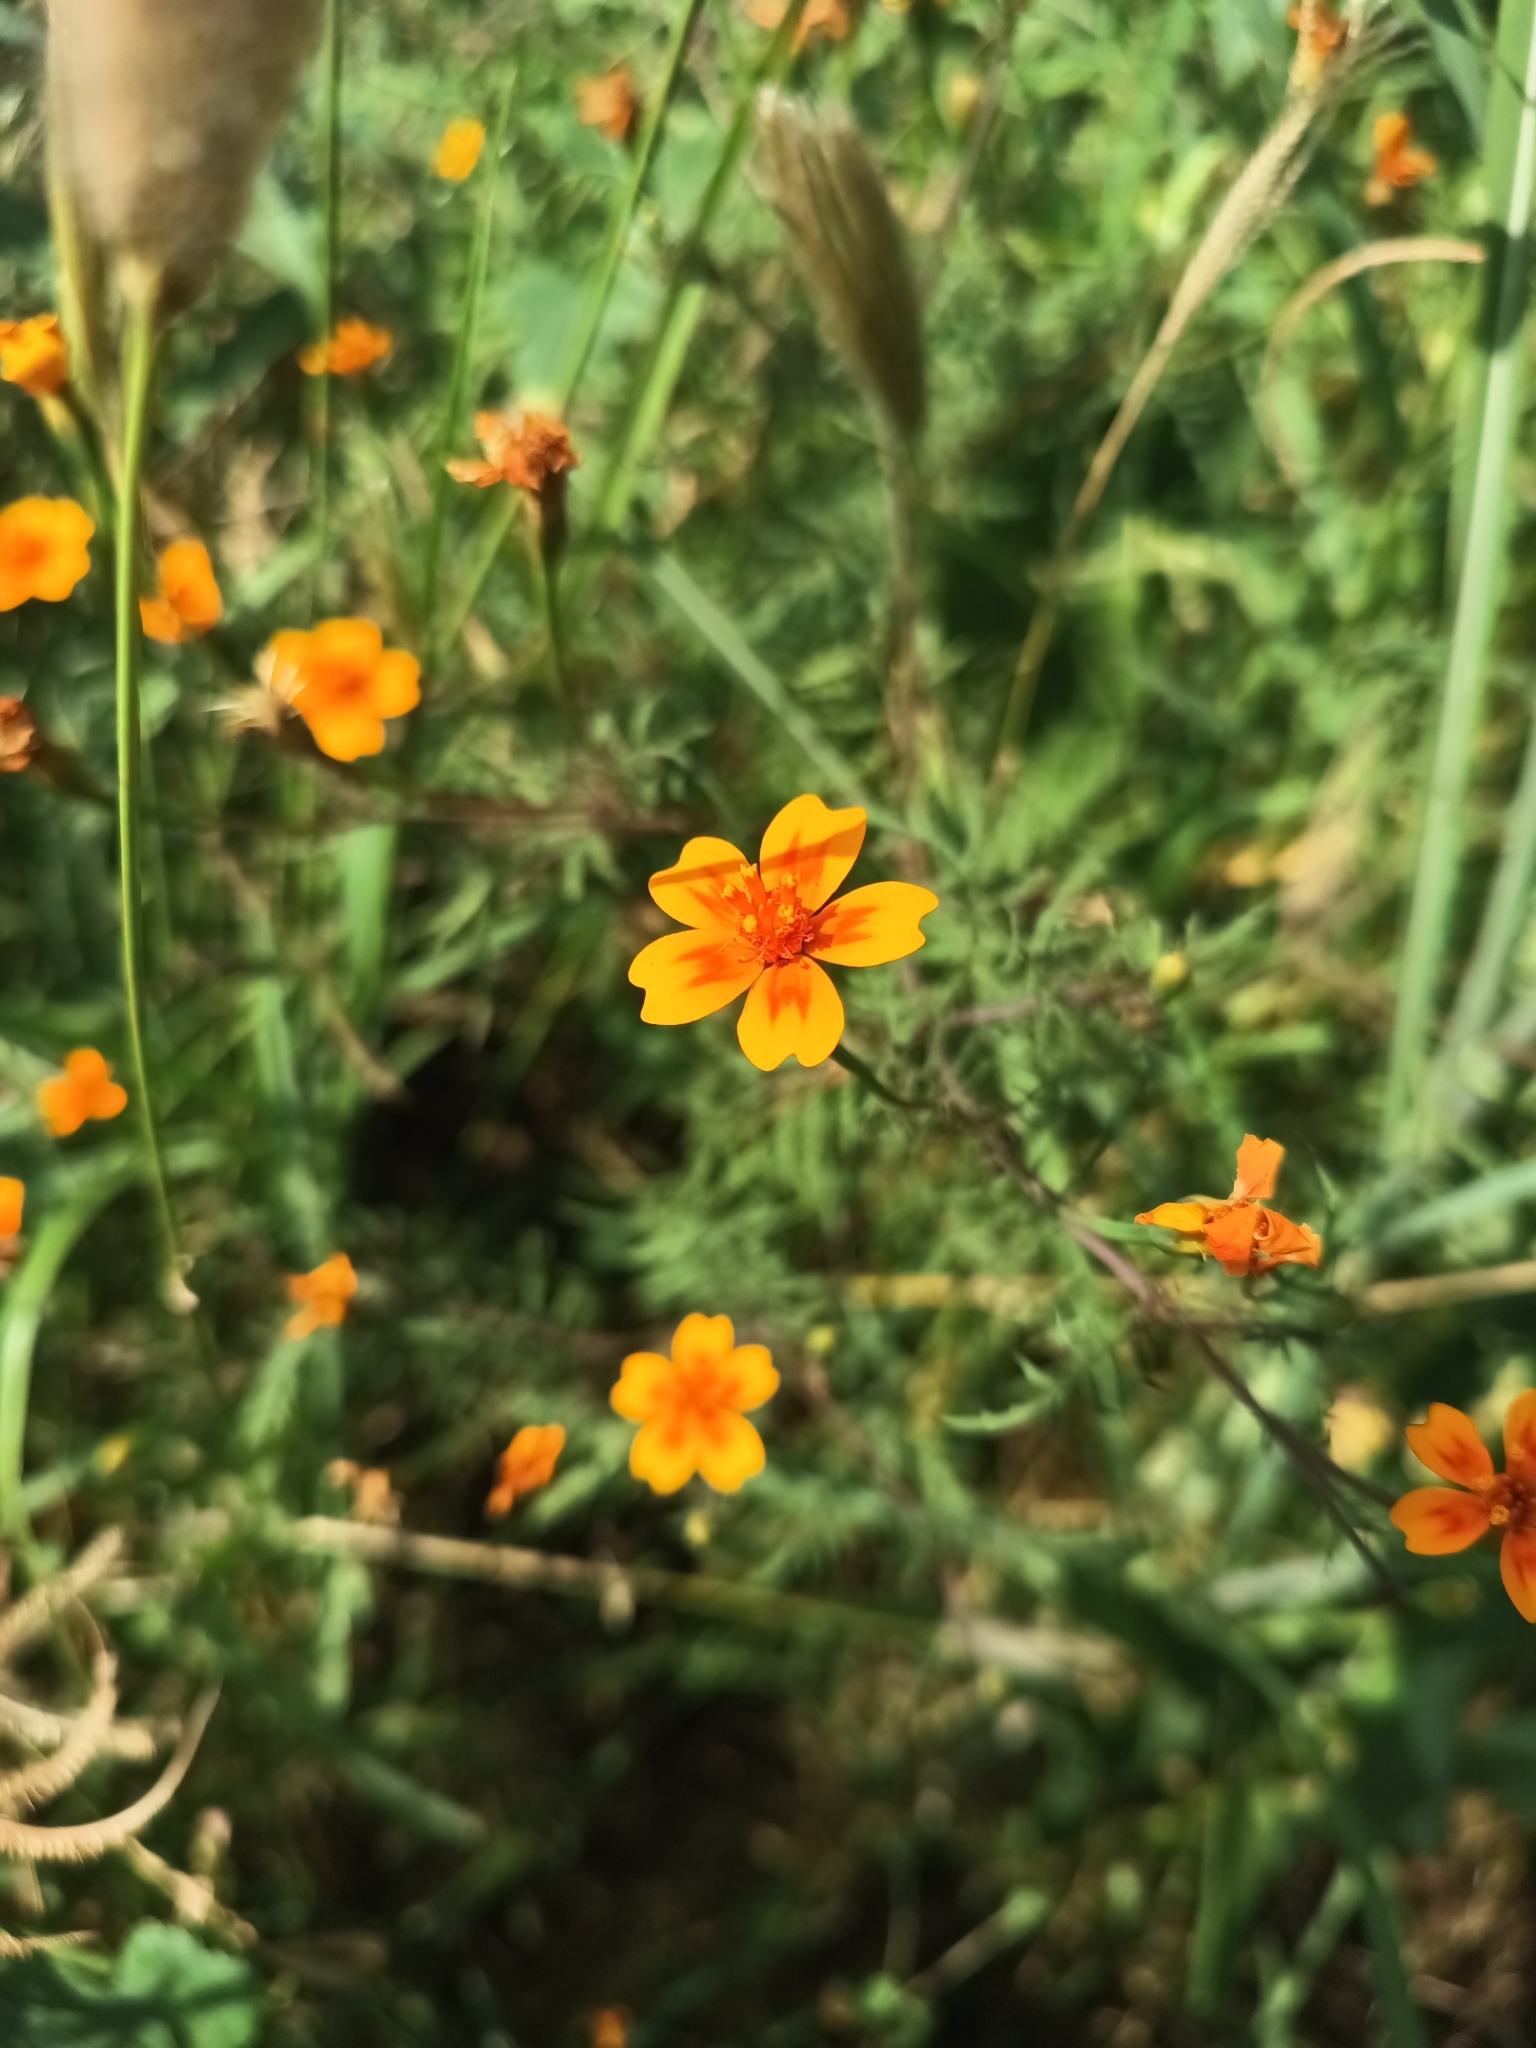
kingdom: Plantae
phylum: Tracheophyta
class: Magnoliopsida
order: Asterales
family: Asteraceae
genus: Tagetes
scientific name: Tagetes lunulata
